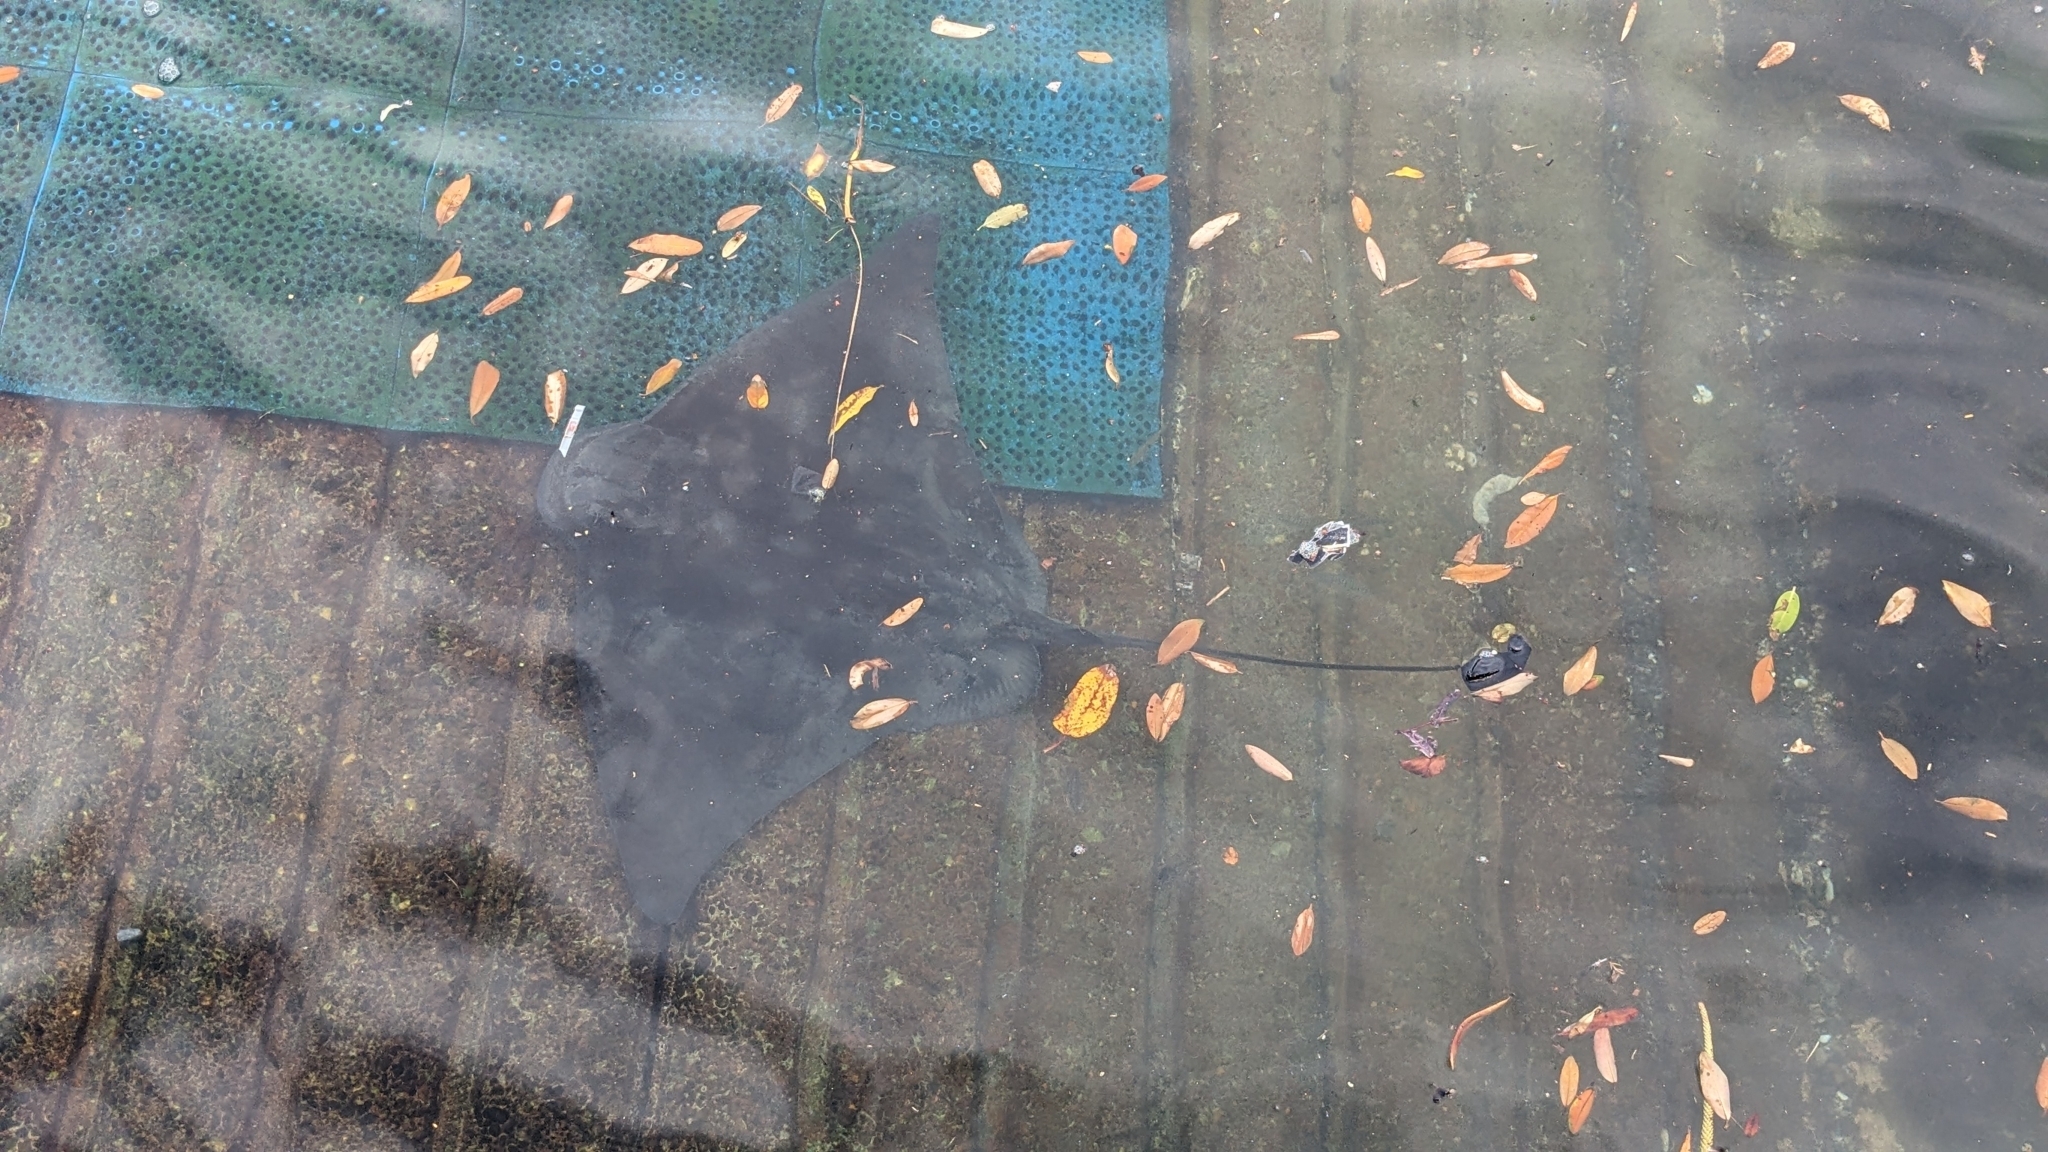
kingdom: Animalia
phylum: Chordata
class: Elasmobranchii
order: Myliobatiformes
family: Myliobatidae
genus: Myliobatis
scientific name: Myliobatis tenuicaudatus
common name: Eagle ray
